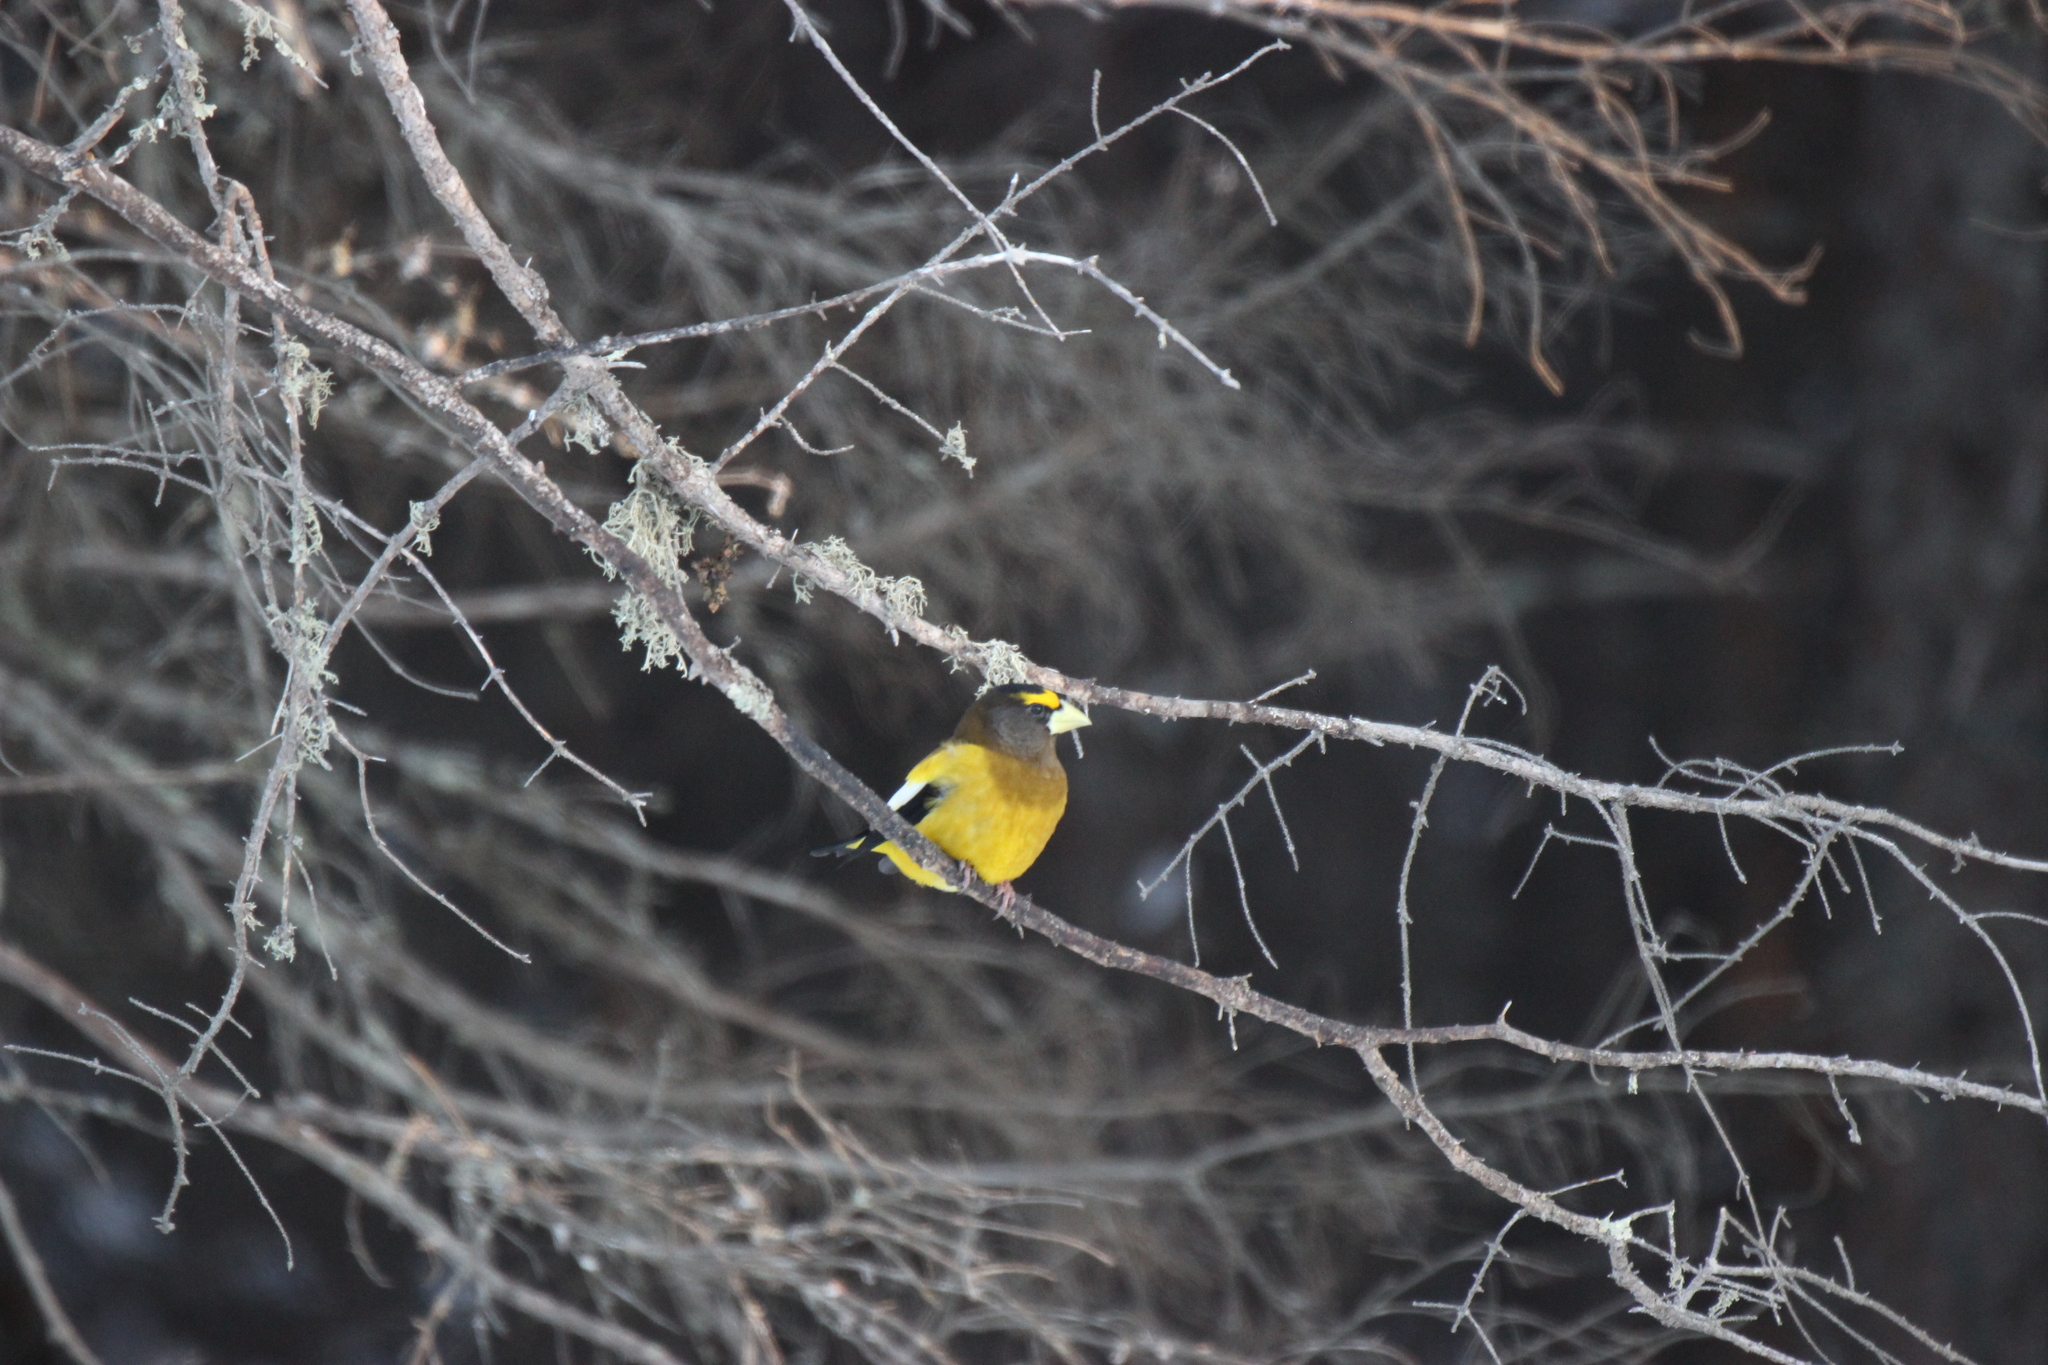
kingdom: Animalia
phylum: Chordata
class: Aves
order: Passeriformes
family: Fringillidae
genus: Hesperiphona
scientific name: Hesperiphona vespertina
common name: Evening grosbeak
